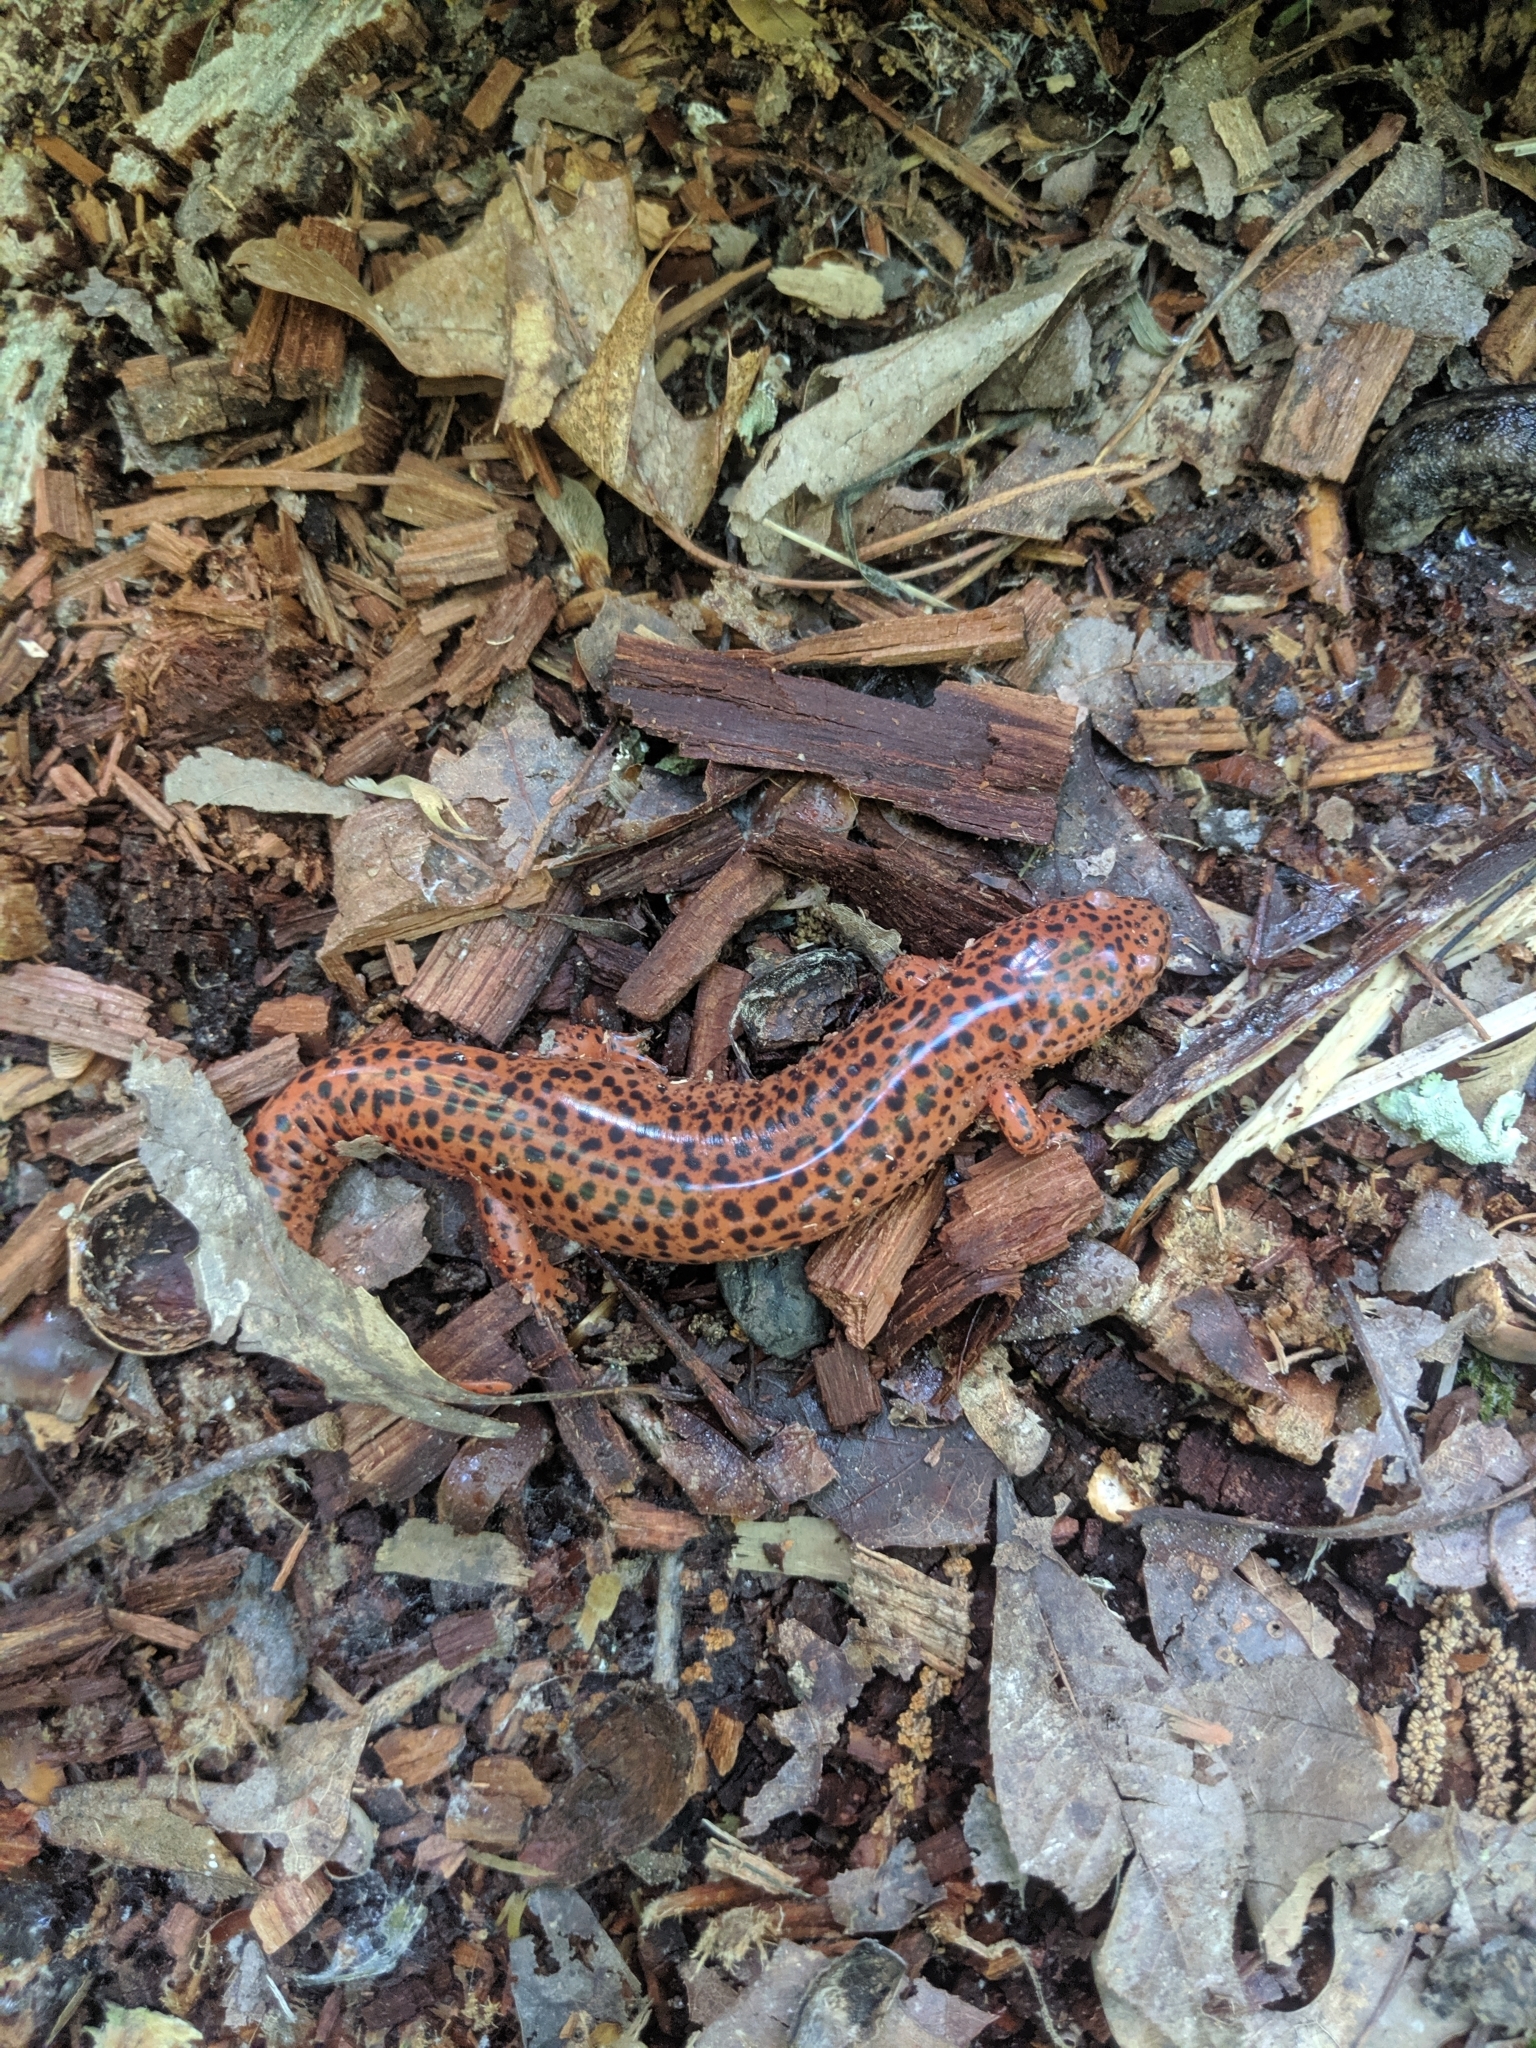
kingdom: Animalia
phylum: Chordata
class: Amphibia
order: Caudata
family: Plethodontidae
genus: Pseudotriton
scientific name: Pseudotriton ruber
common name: Red salamander
